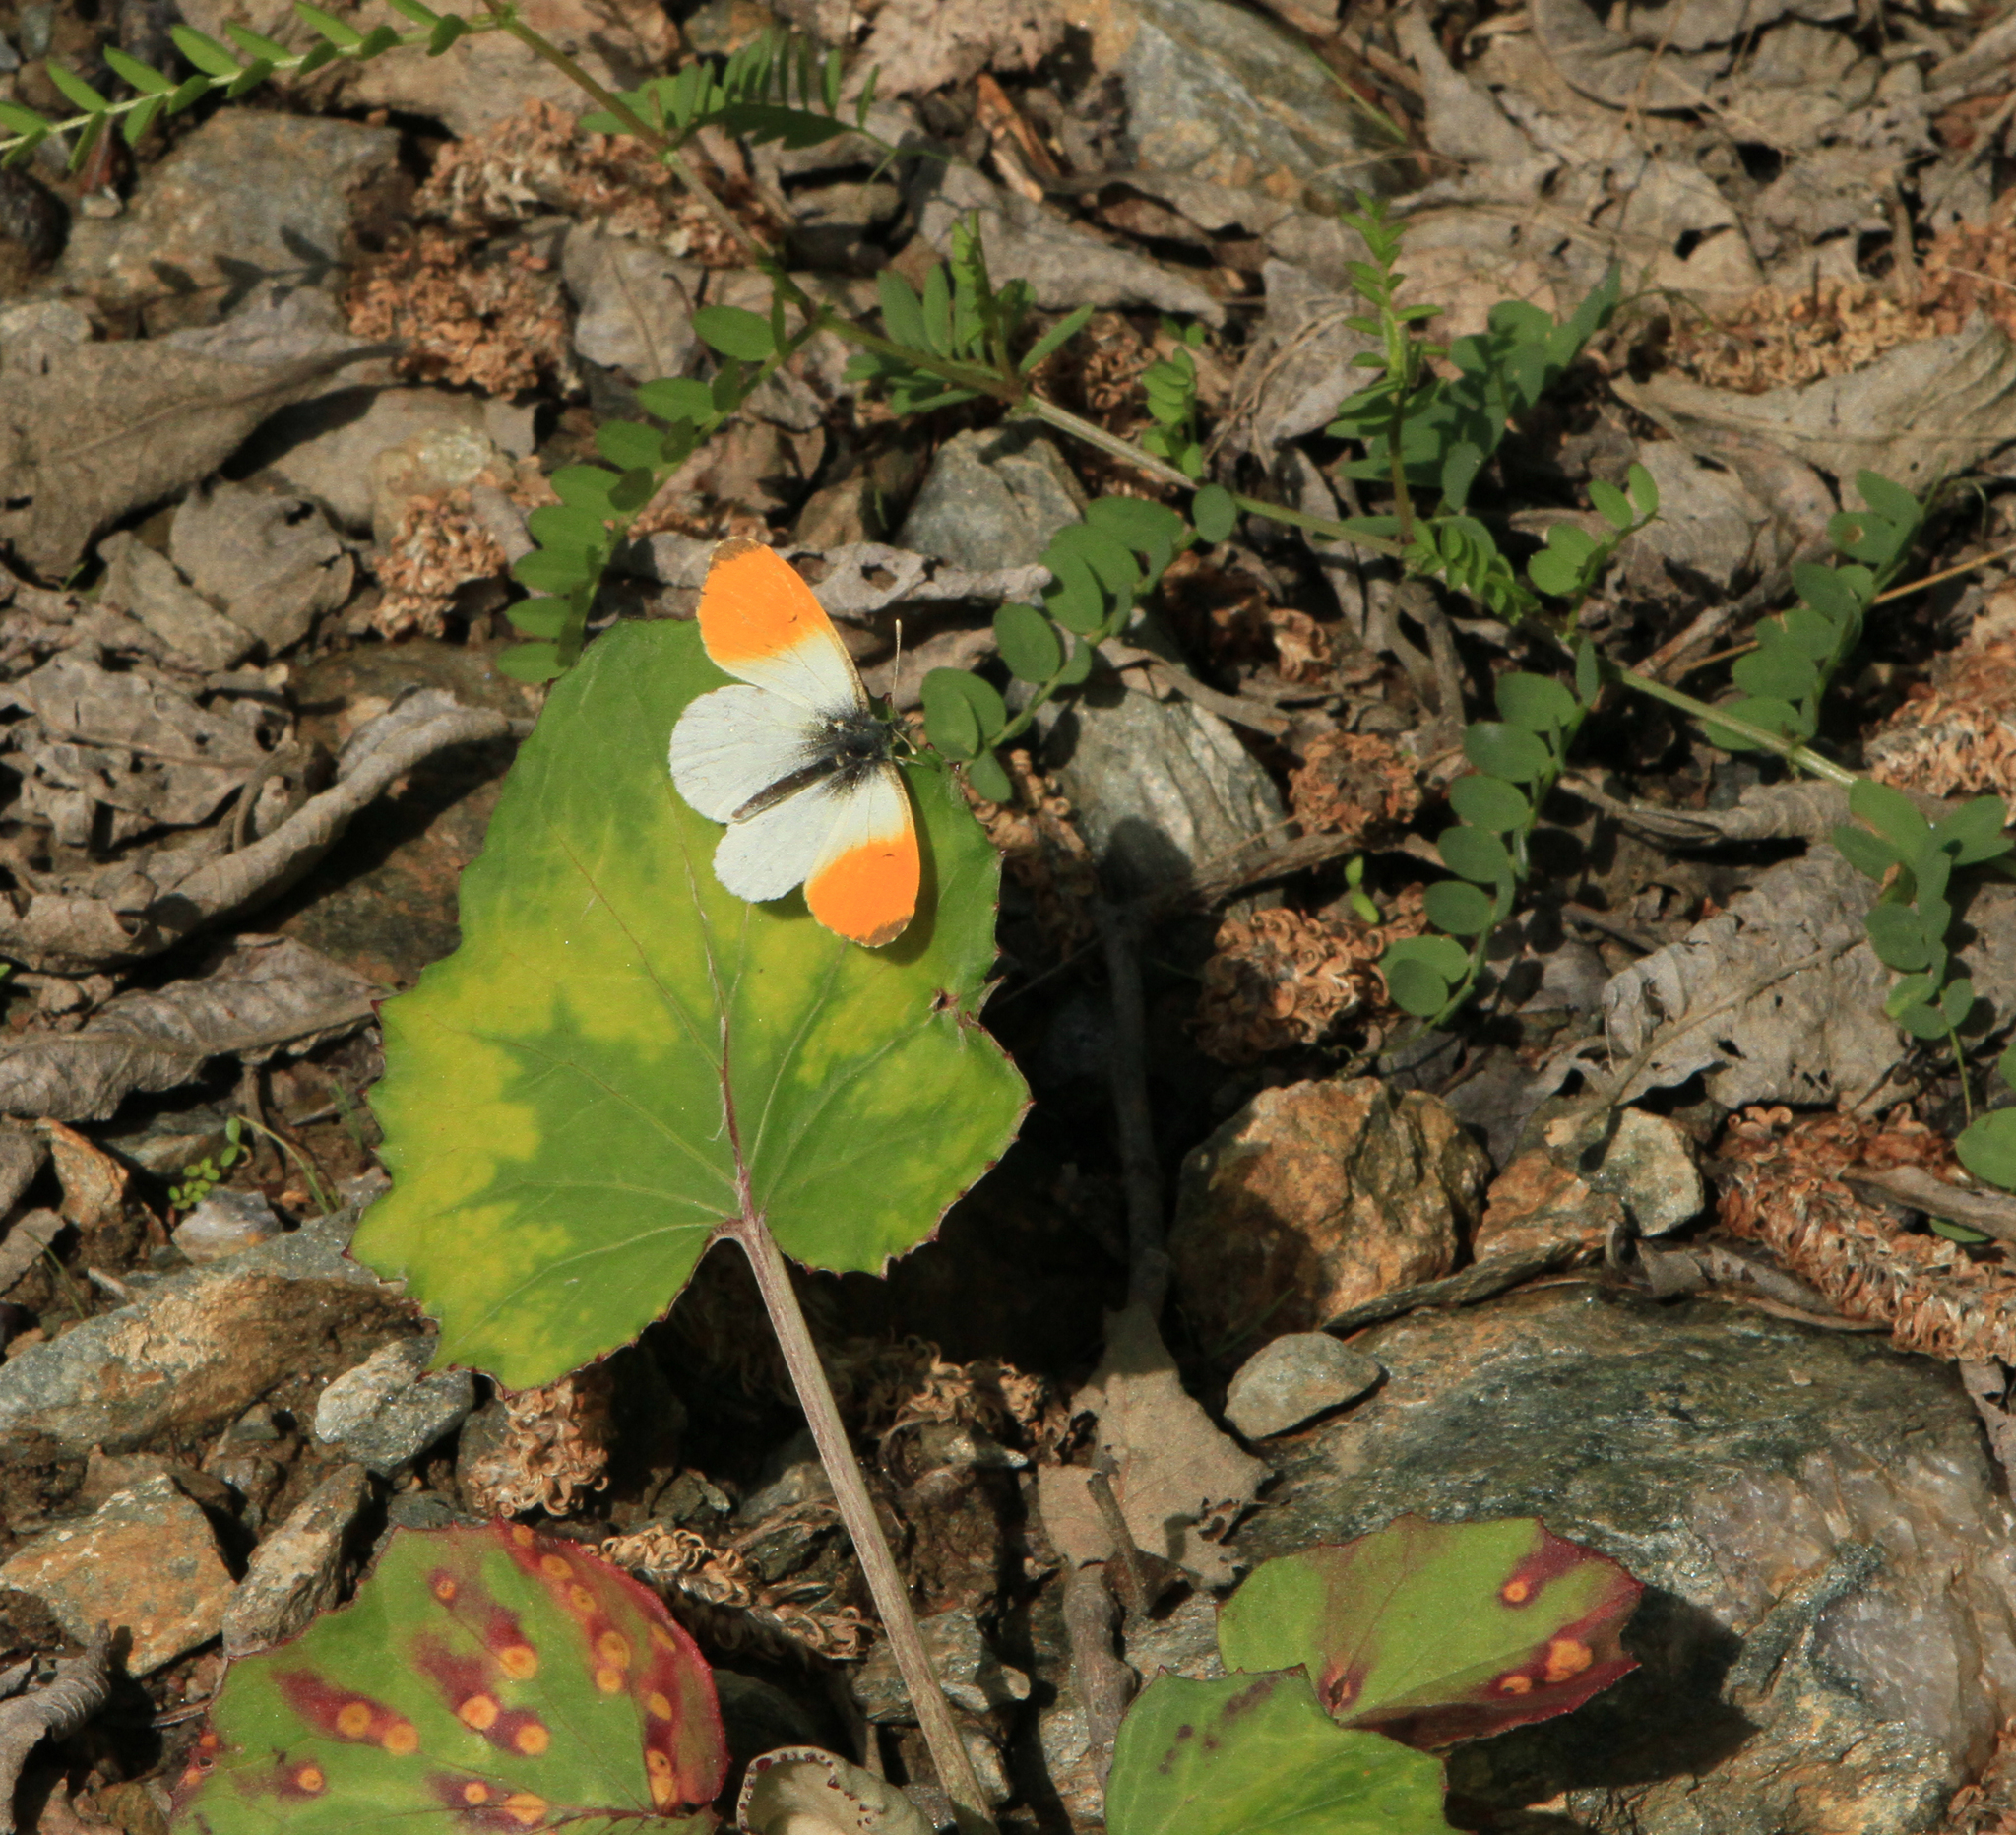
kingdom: Animalia
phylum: Arthropoda
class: Insecta
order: Lepidoptera
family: Pieridae
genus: Anthocharis
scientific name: Anthocharis cardamines
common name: Orange-tip
